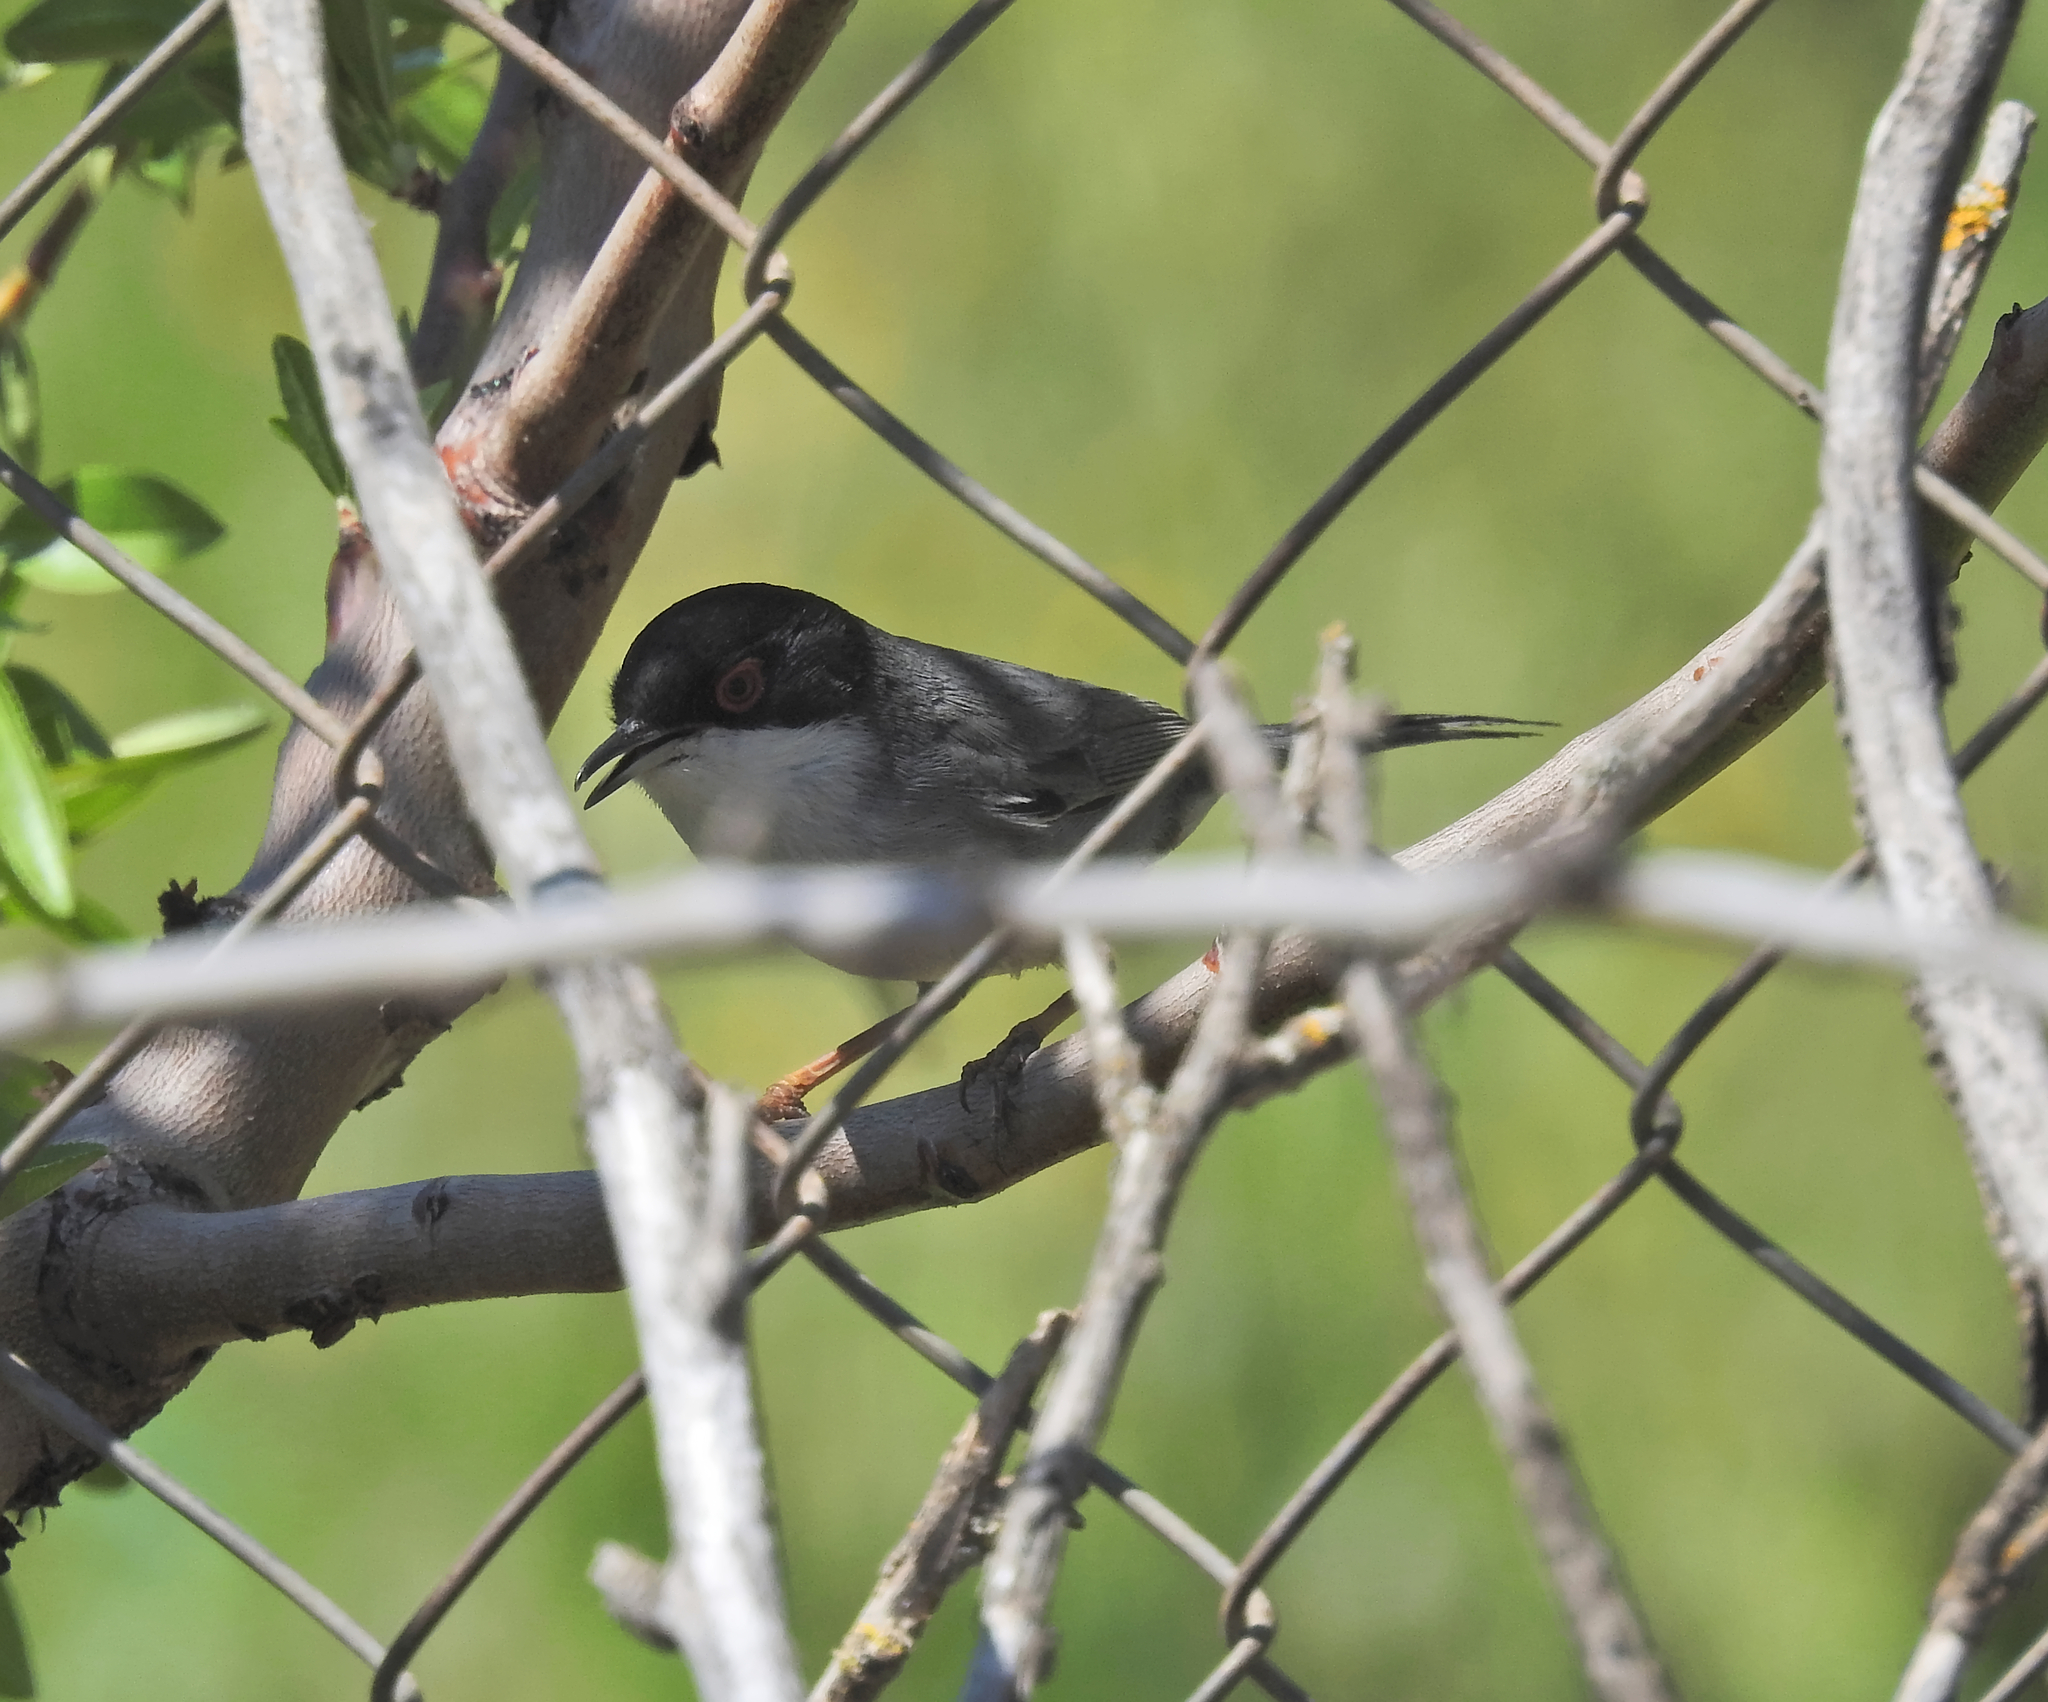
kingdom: Animalia
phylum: Chordata
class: Aves
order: Passeriformes
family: Sylviidae
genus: Curruca
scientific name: Curruca melanocephala
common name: Sardinian warbler
